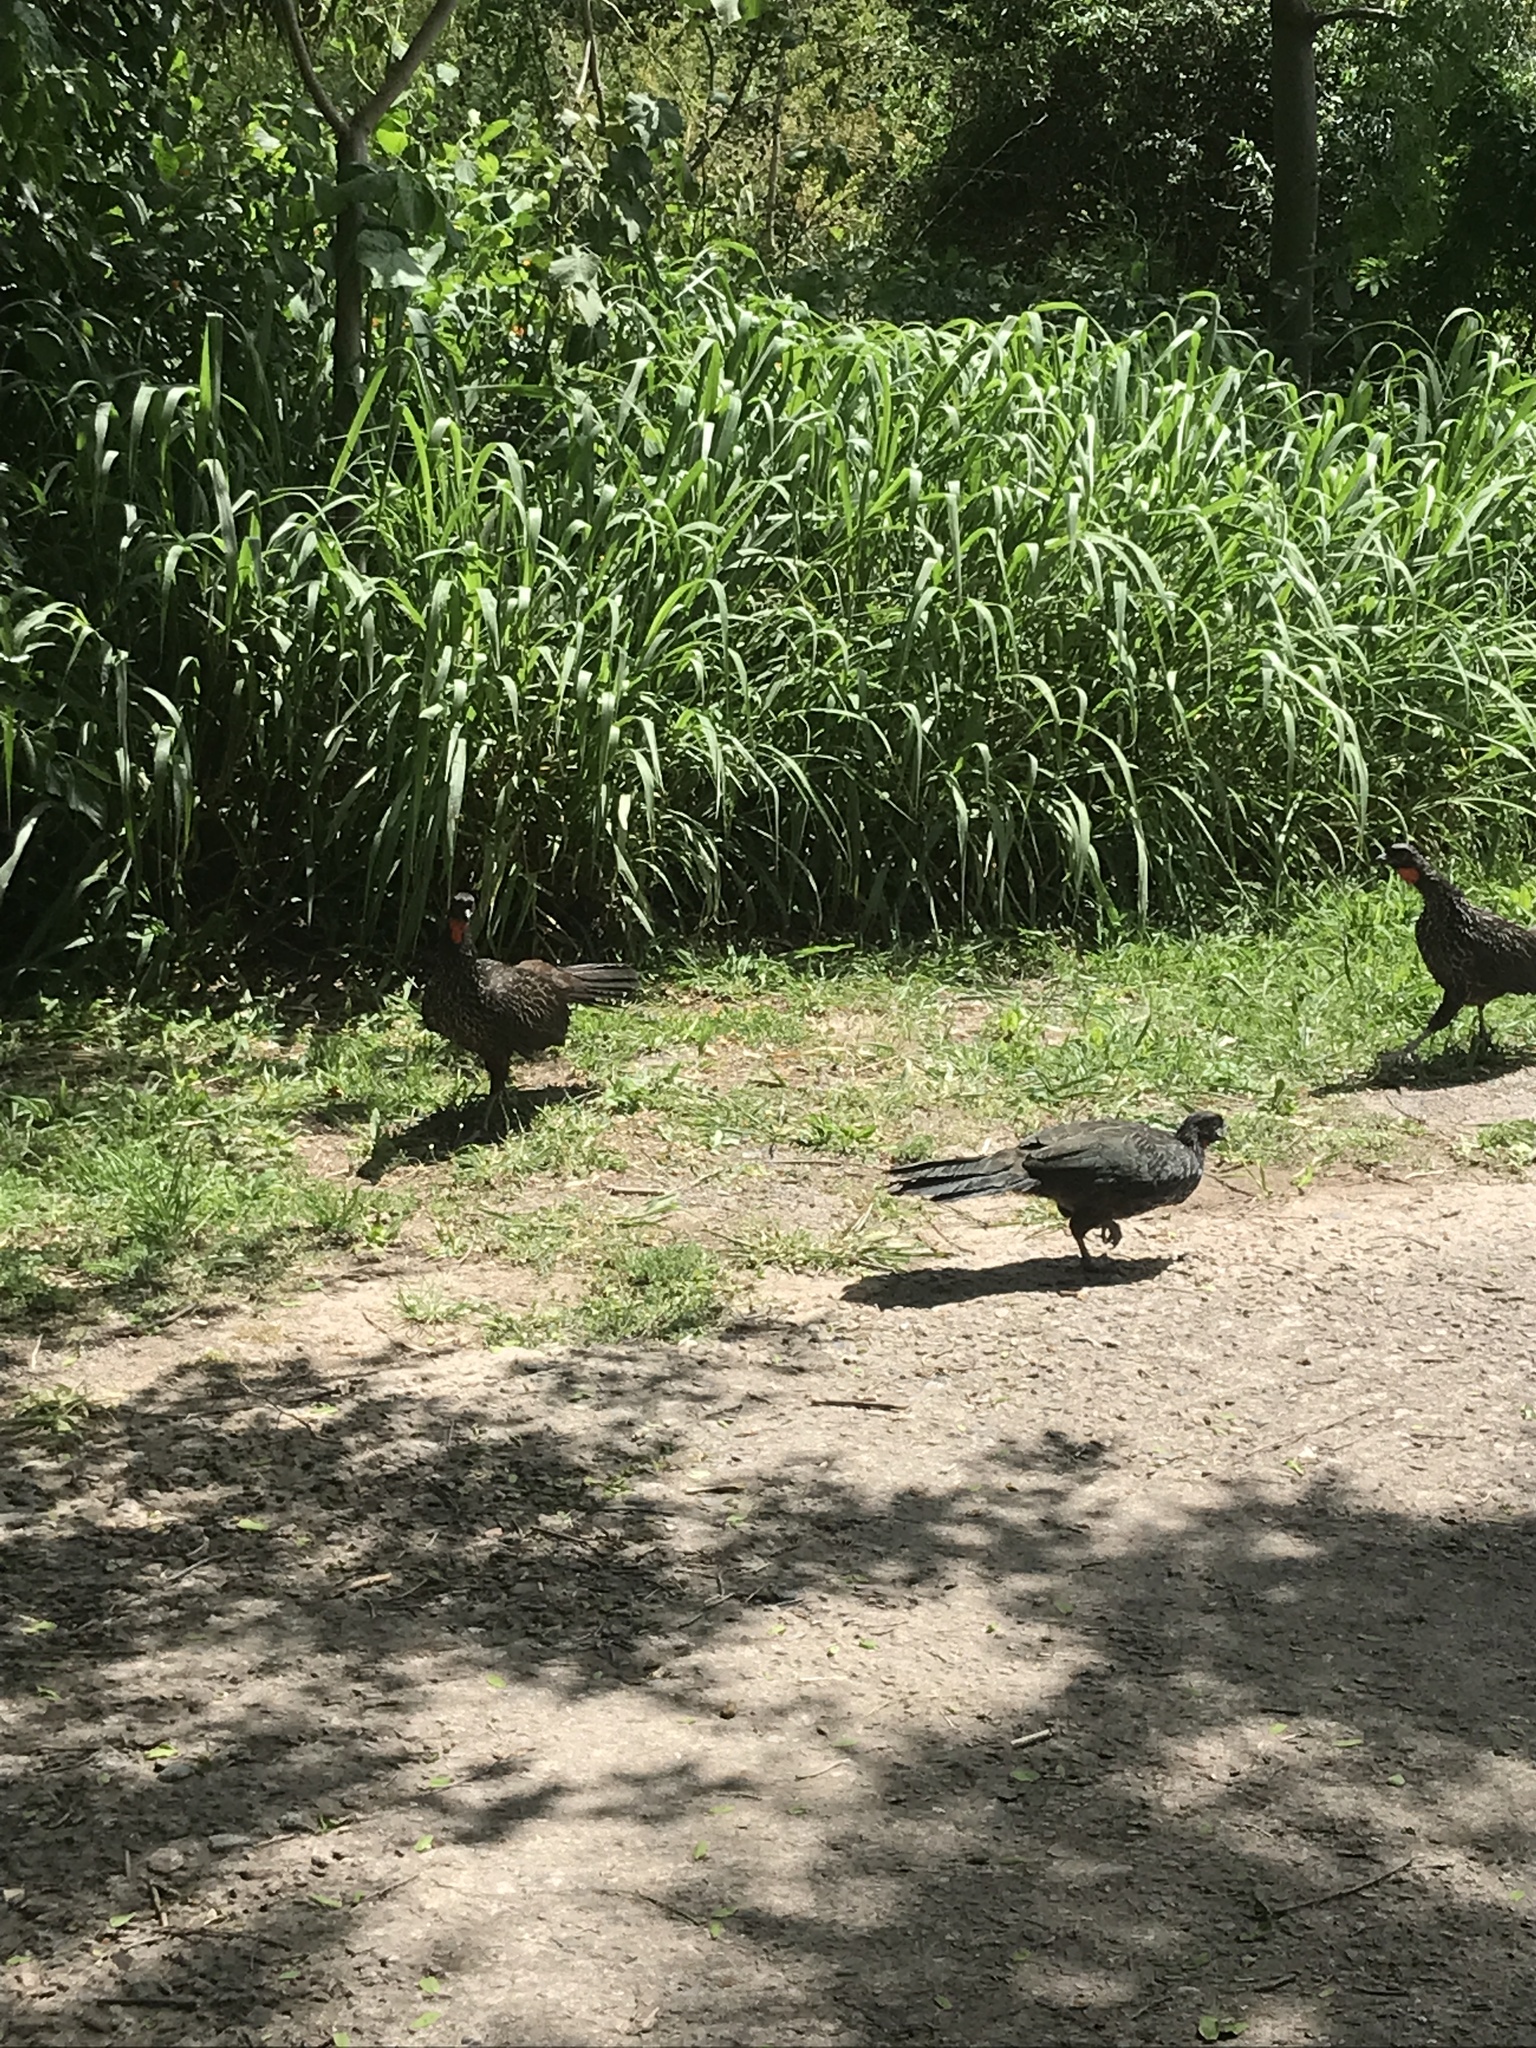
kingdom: Animalia
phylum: Chordata
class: Aves
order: Galliformes
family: Cracidae
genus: Penelope
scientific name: Penelope obscura
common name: Dusky-legged guan
